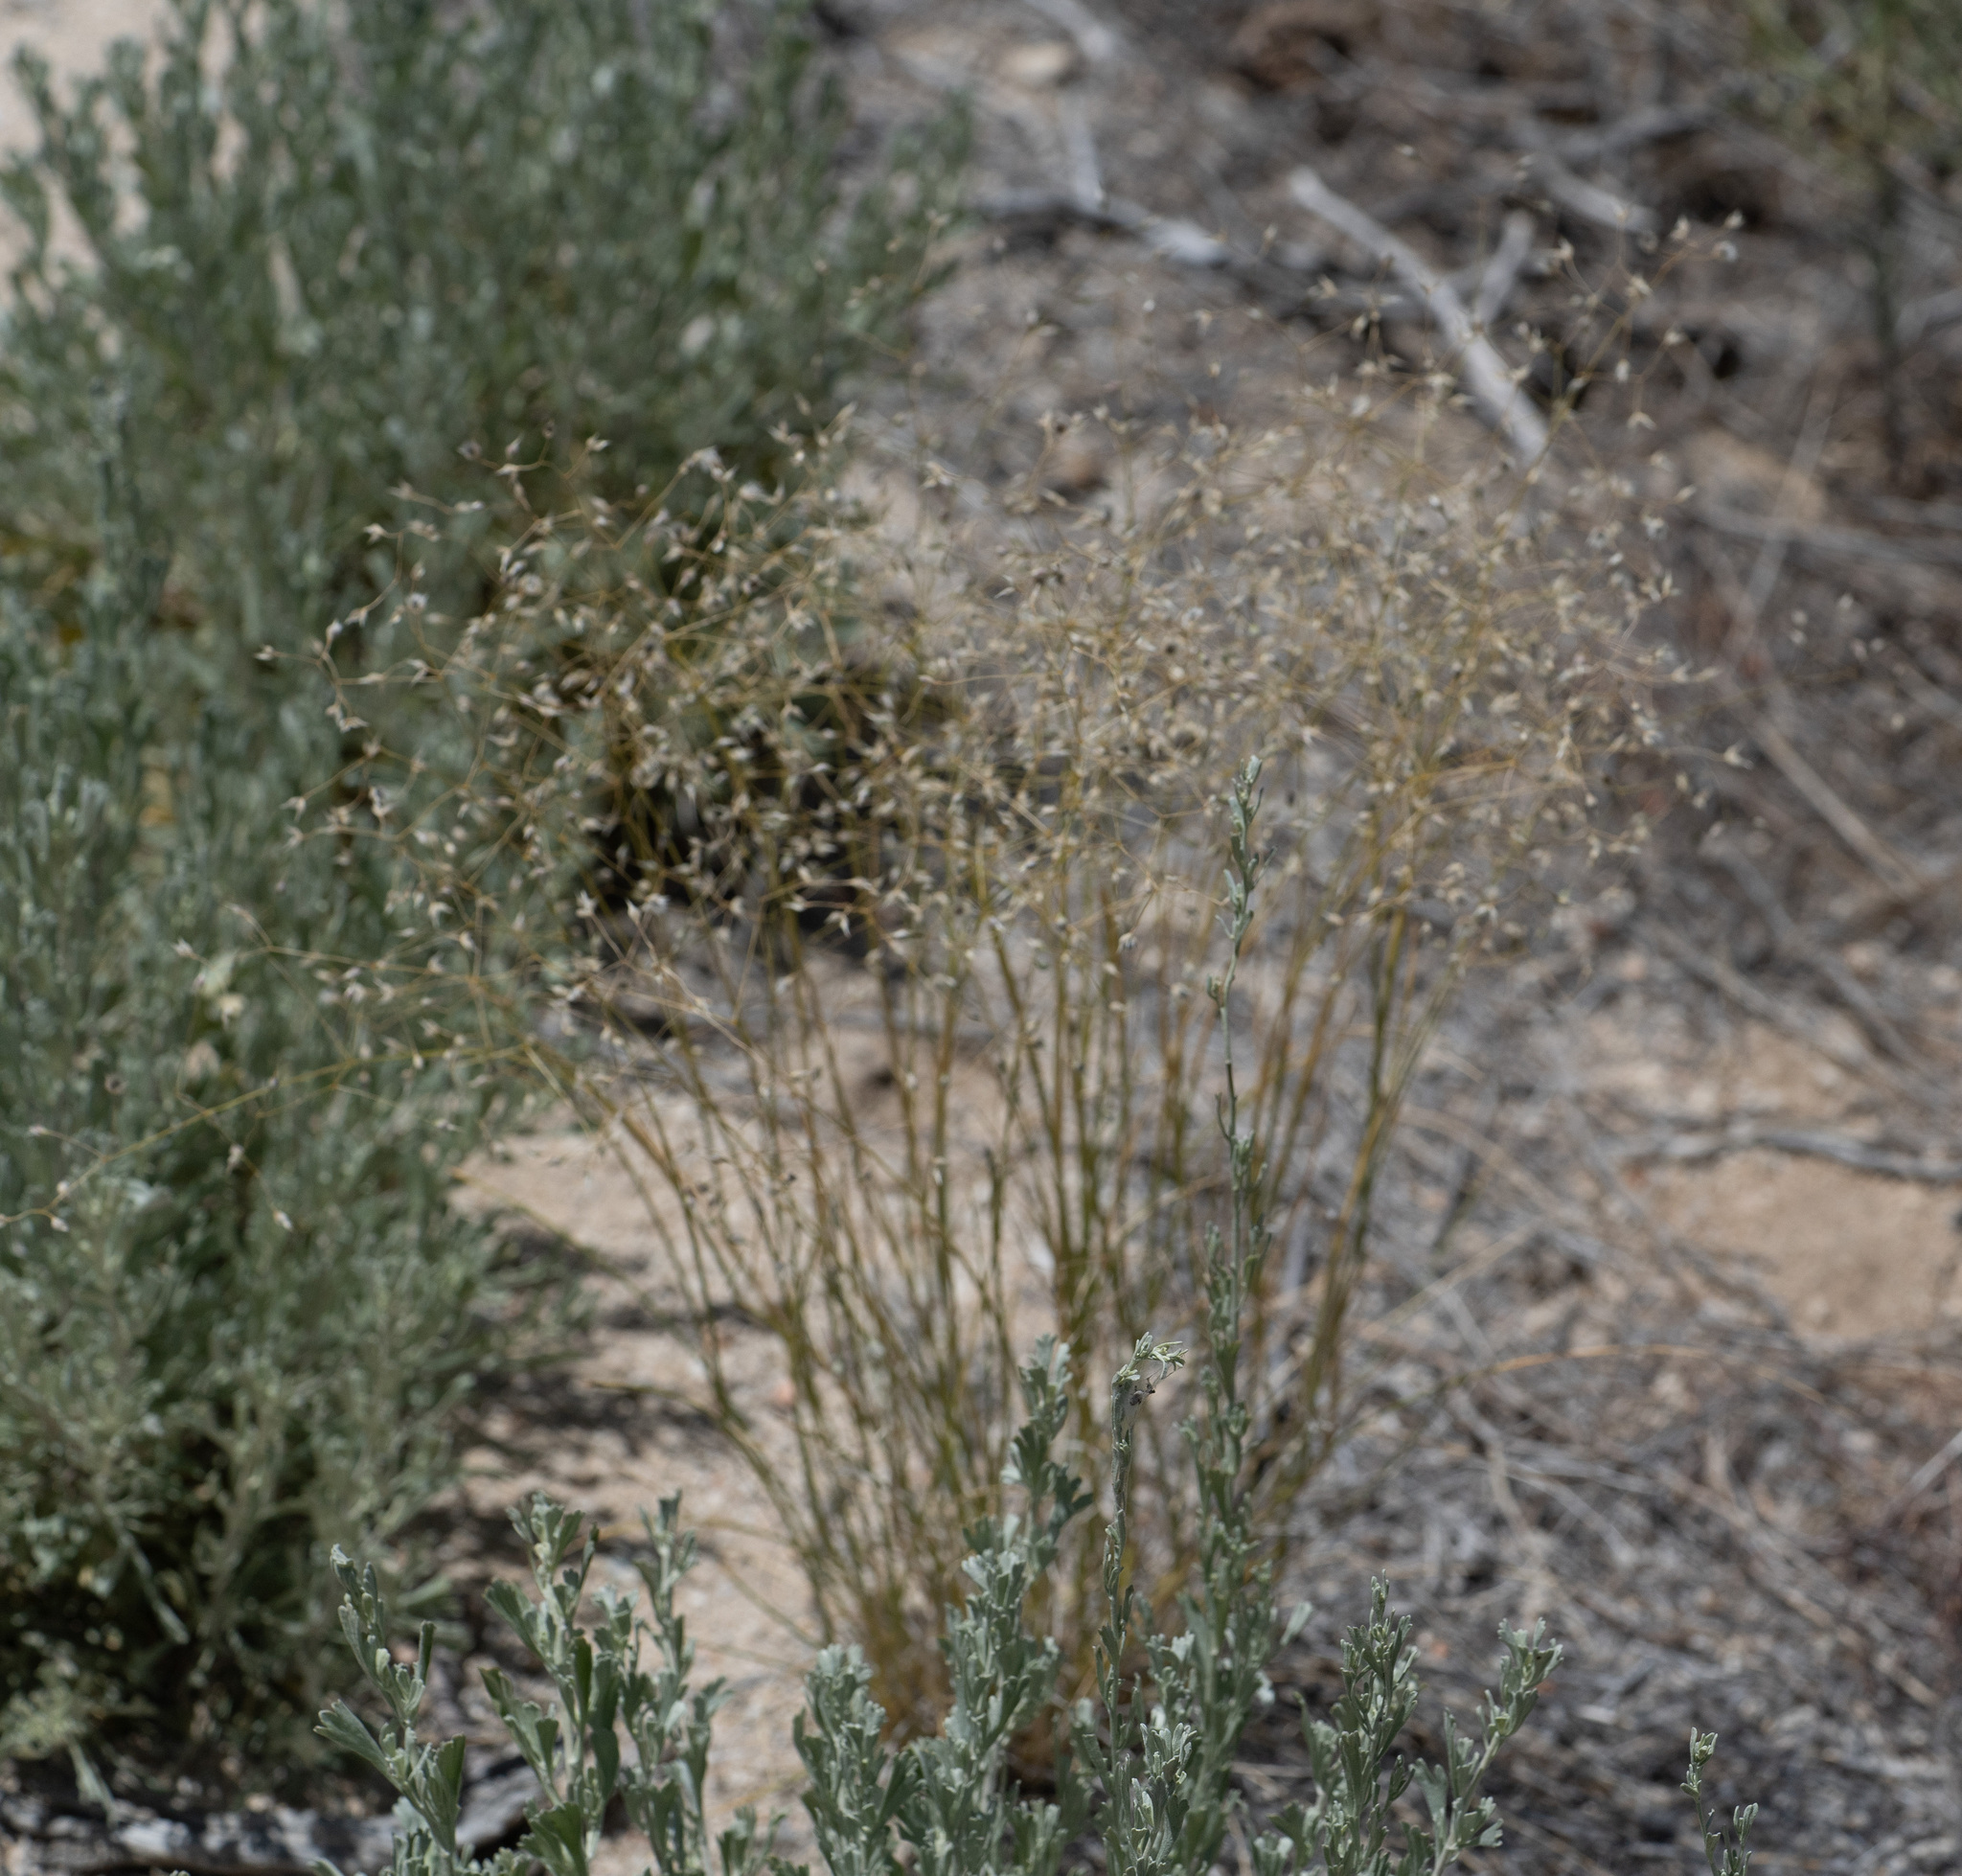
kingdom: Plantae
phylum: Tracheophyta
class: Liliopsida
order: Poales
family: Poaceae
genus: Eriocoma
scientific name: Eriocoma hymenoides
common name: Indian mountain ricegrass
